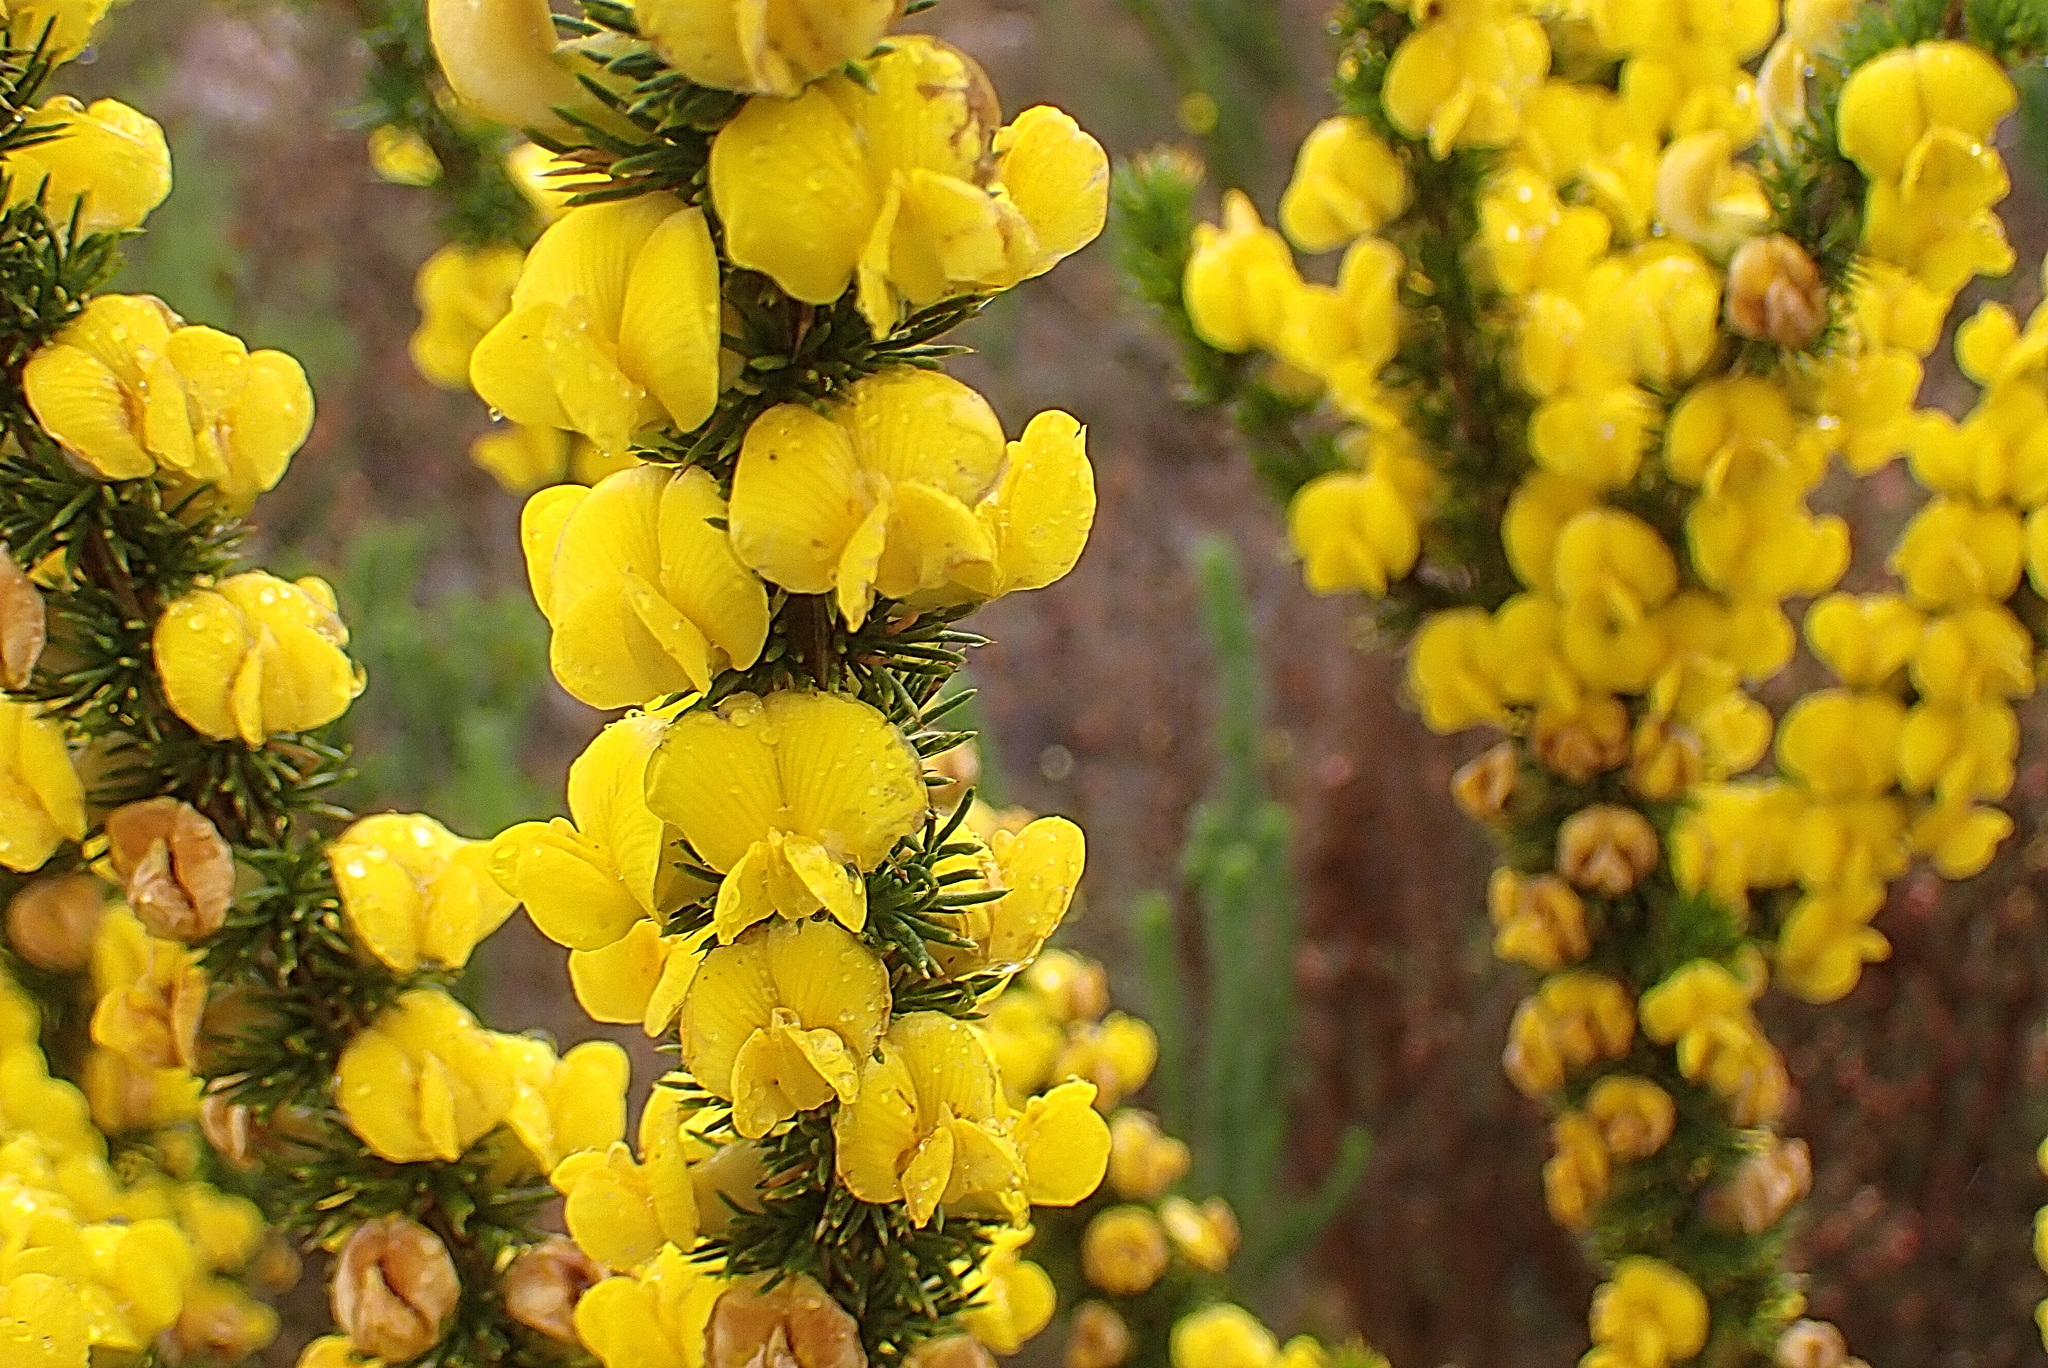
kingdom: Plantae
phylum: Tracheophyta
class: Magnoliopsida
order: Fabales
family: Fabaceae
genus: Aspalathus
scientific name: Aspalathus sceptrumaureum
